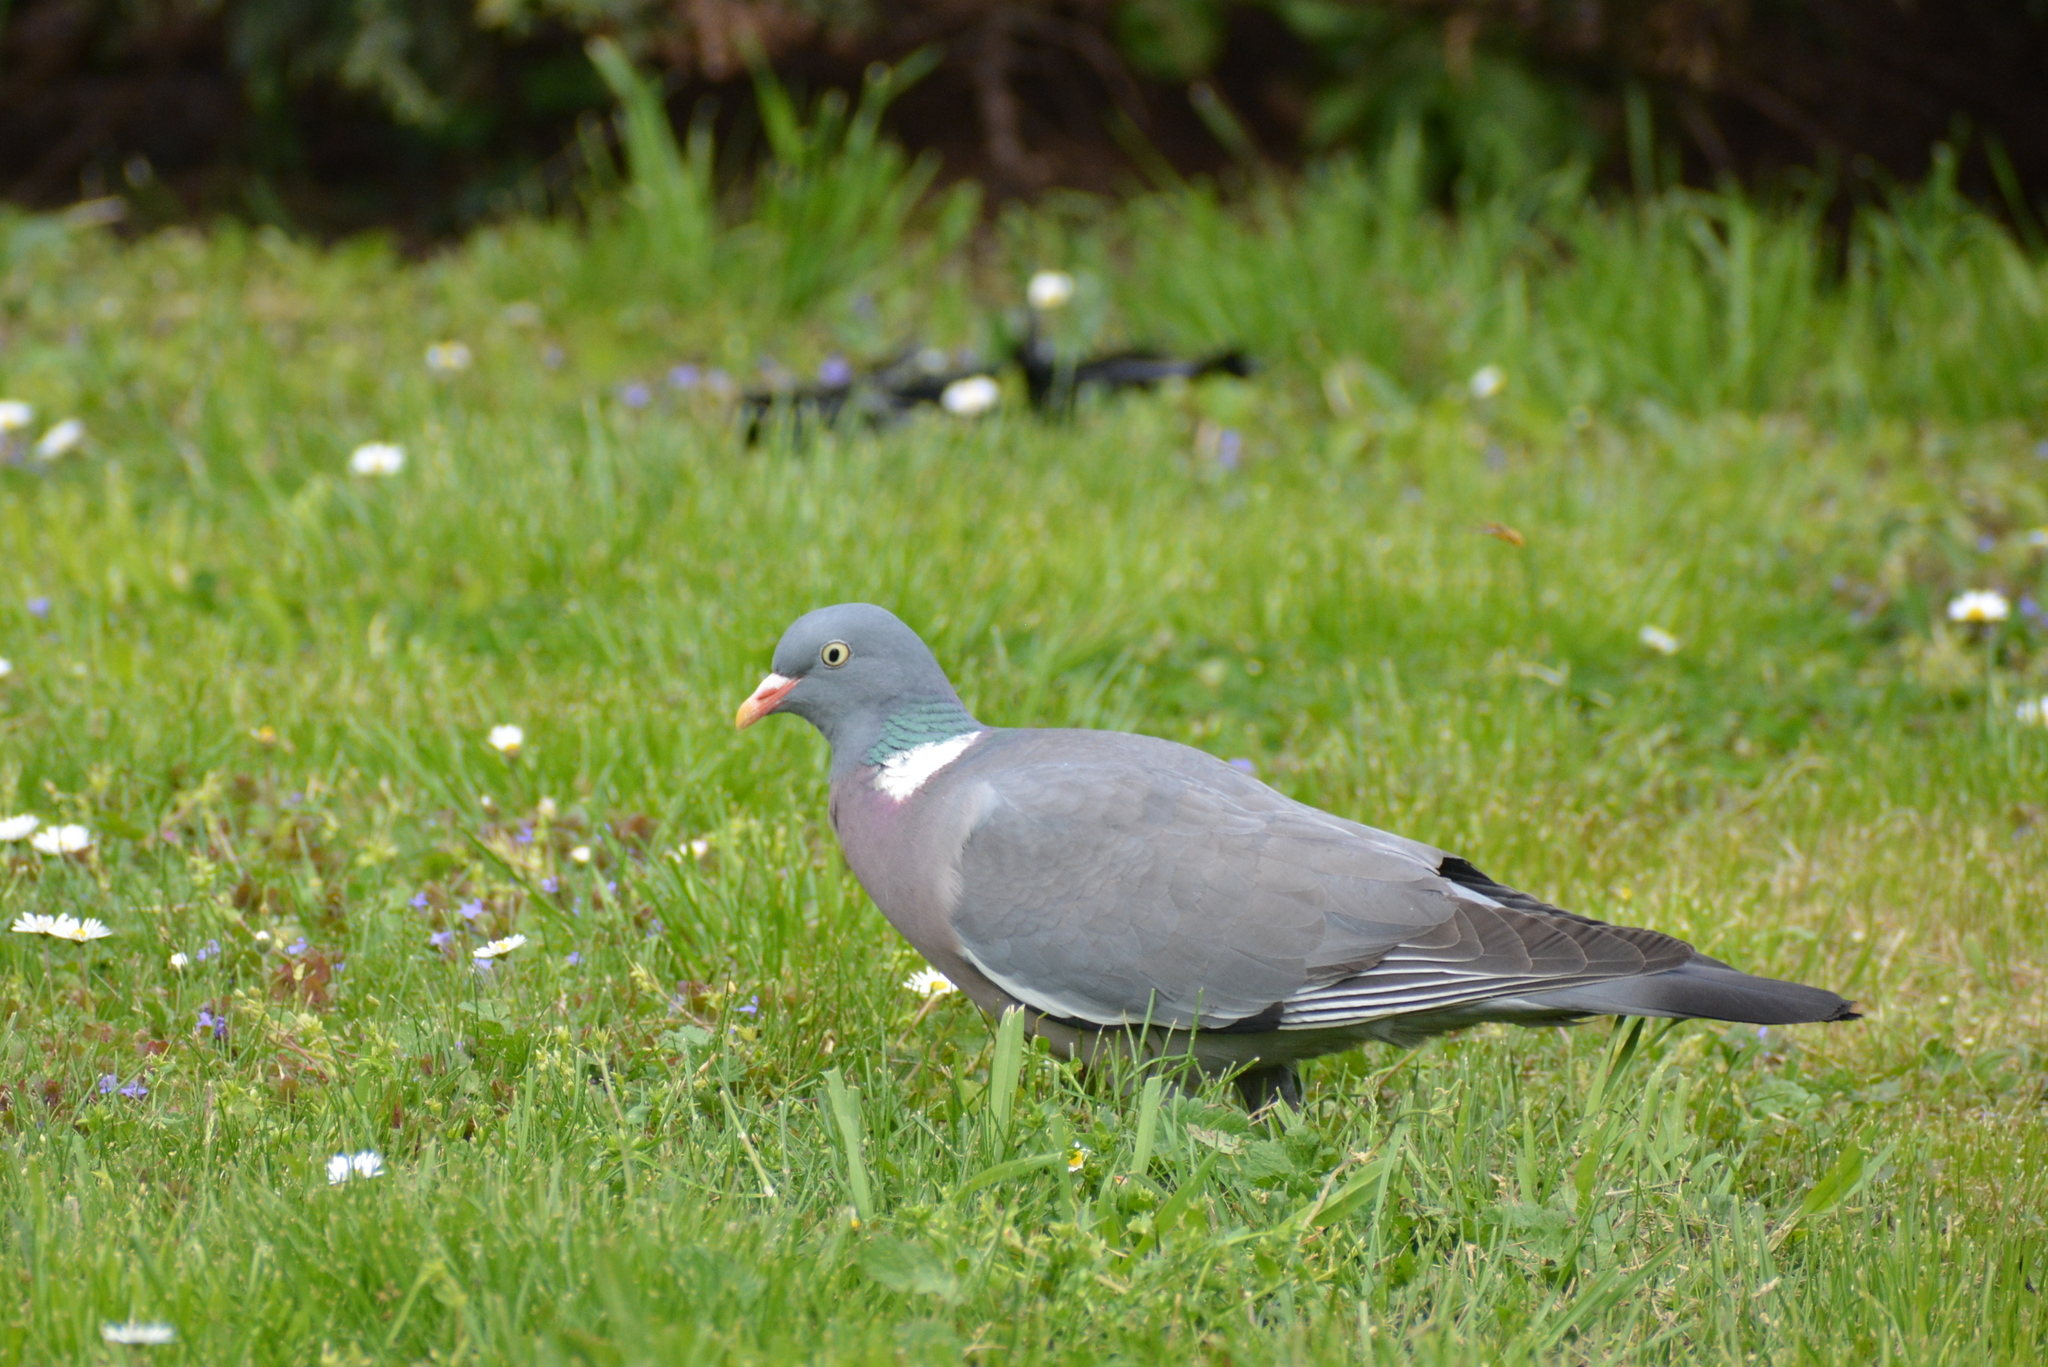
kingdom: Animalia
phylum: Chordata
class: Aves
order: Columbiformes
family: Columbidae
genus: Columba
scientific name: Columba palumbus
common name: Common wood pigeon
